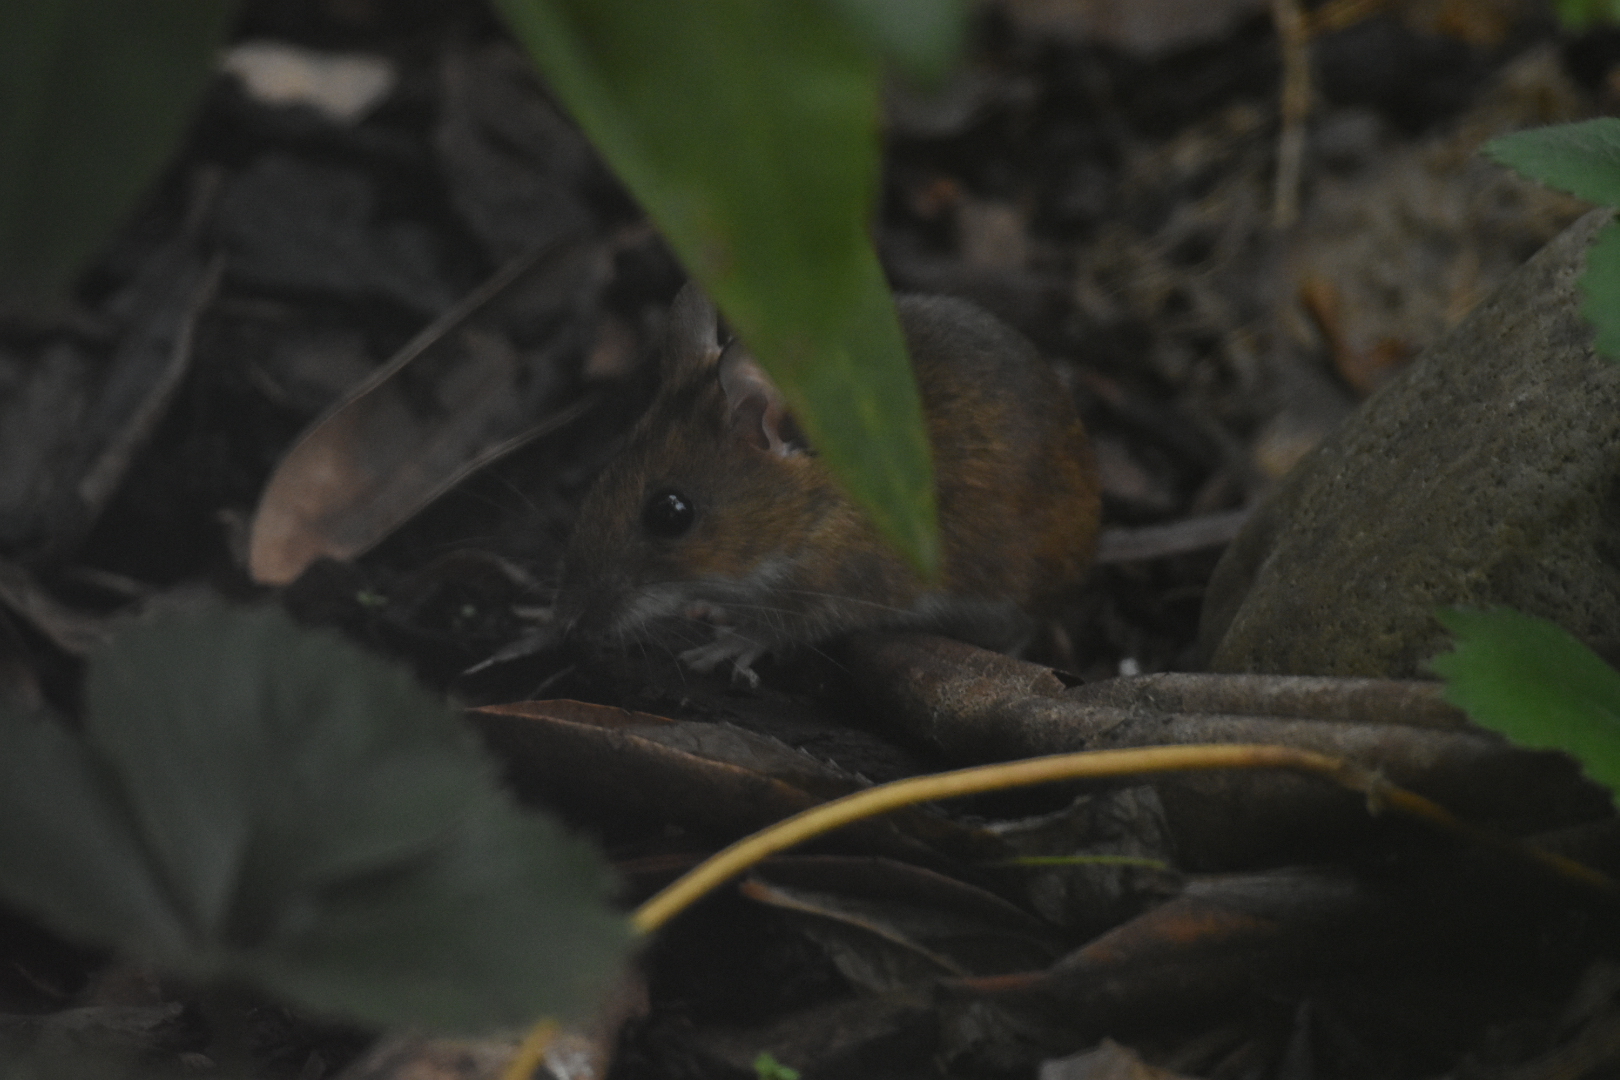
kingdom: Animalia
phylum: Chordata
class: Mammalia
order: Rodentia
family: Muridae
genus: Apodemus
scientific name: Apodemus sylvaticus
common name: Wood mouse
